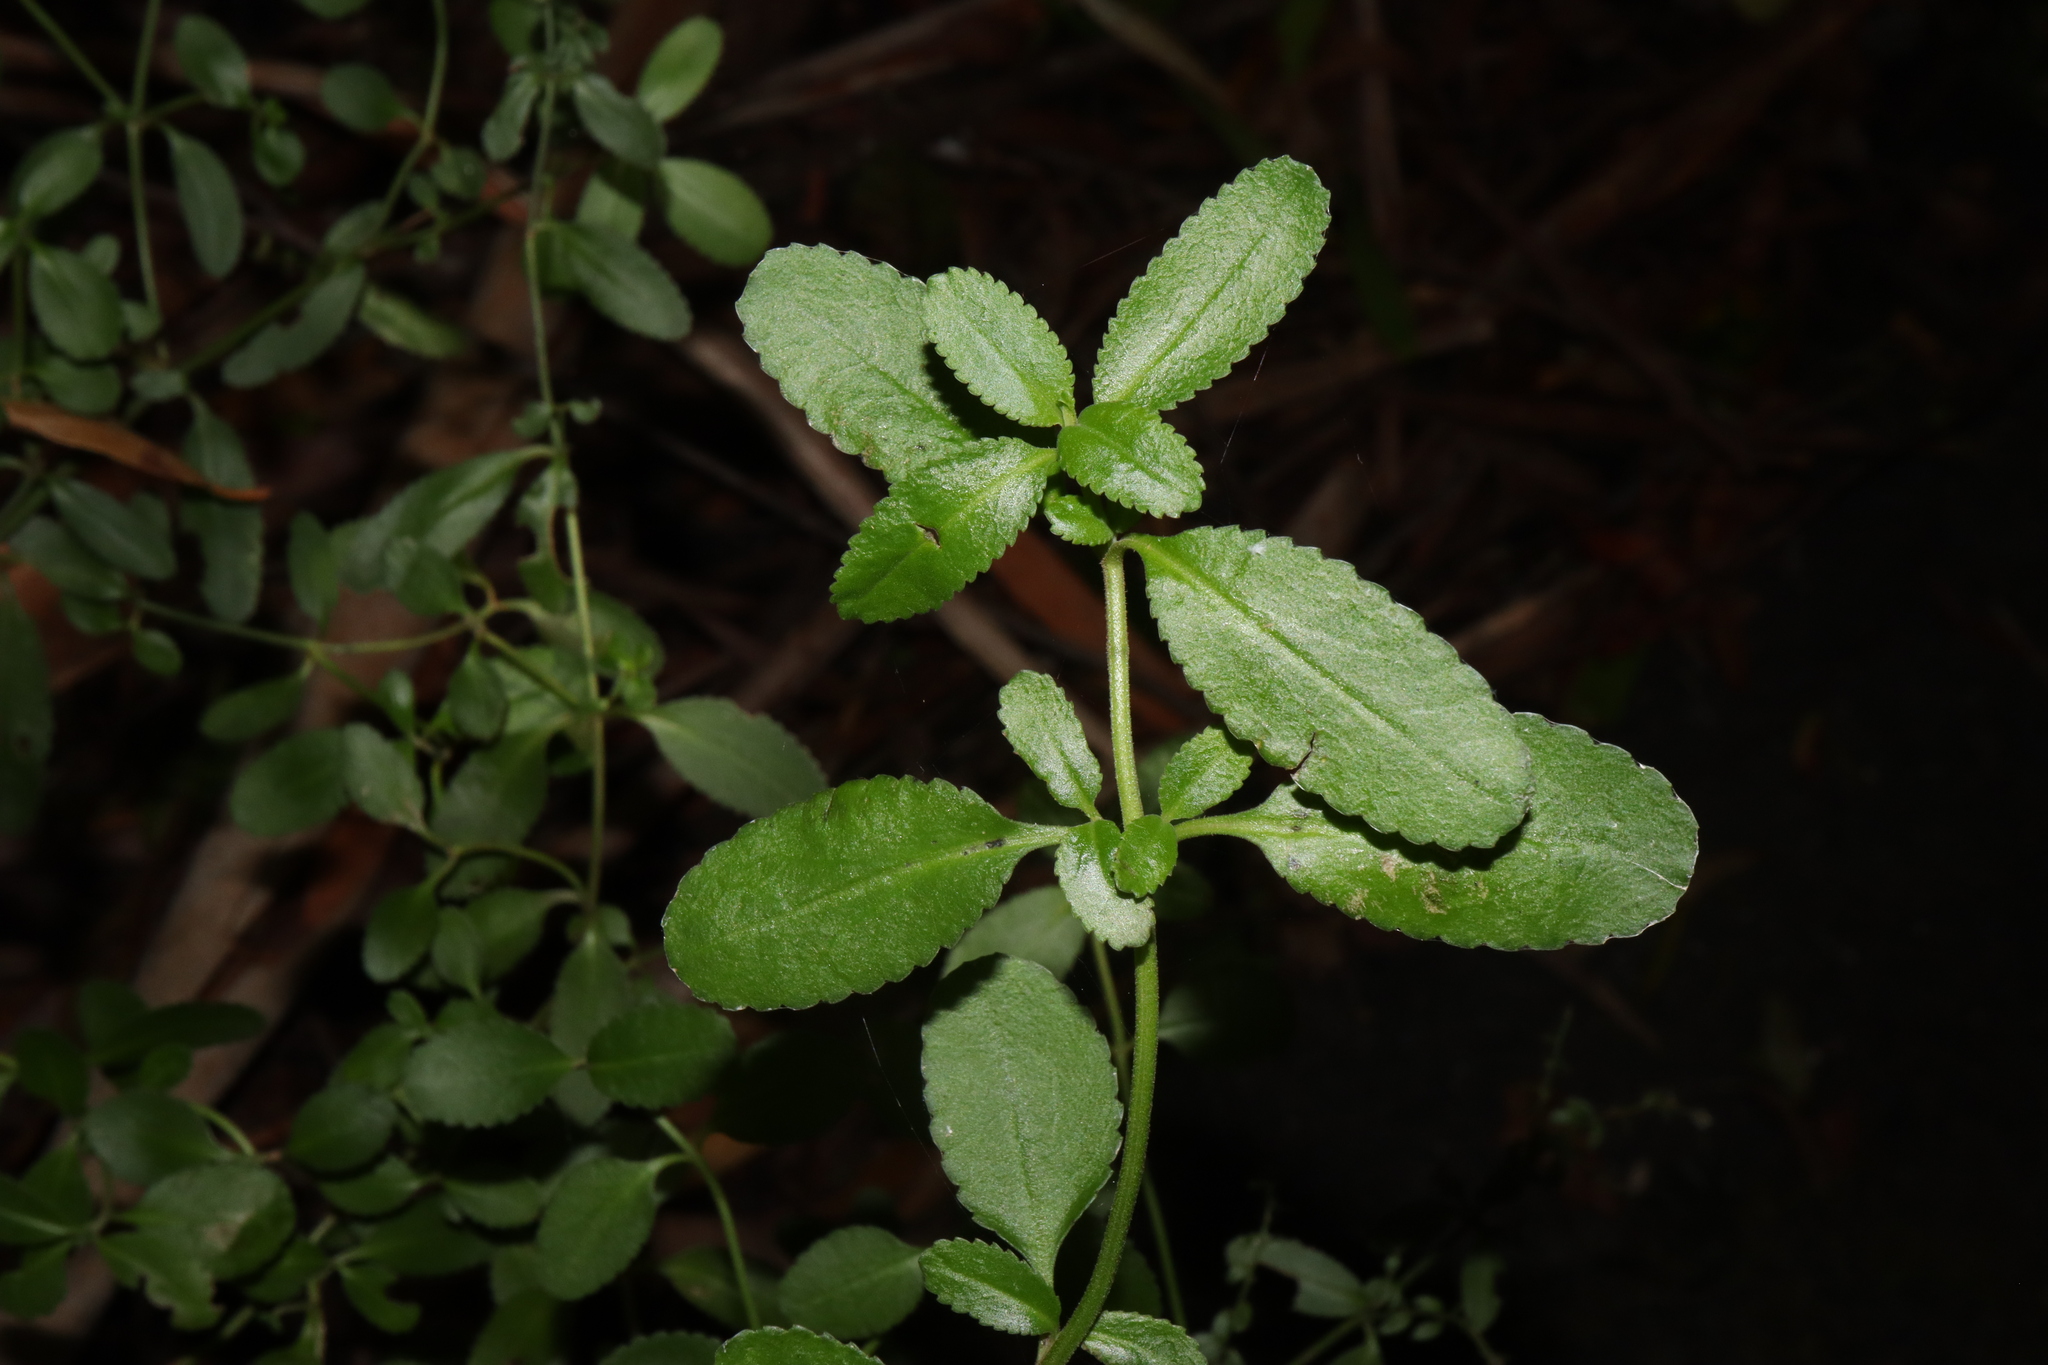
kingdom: Plantae
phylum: Tracheophyta
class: Magnoliopsida
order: Saxifragales
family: Haloragaceae
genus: Gonocarpus
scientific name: Gonocarpus oreophilus
